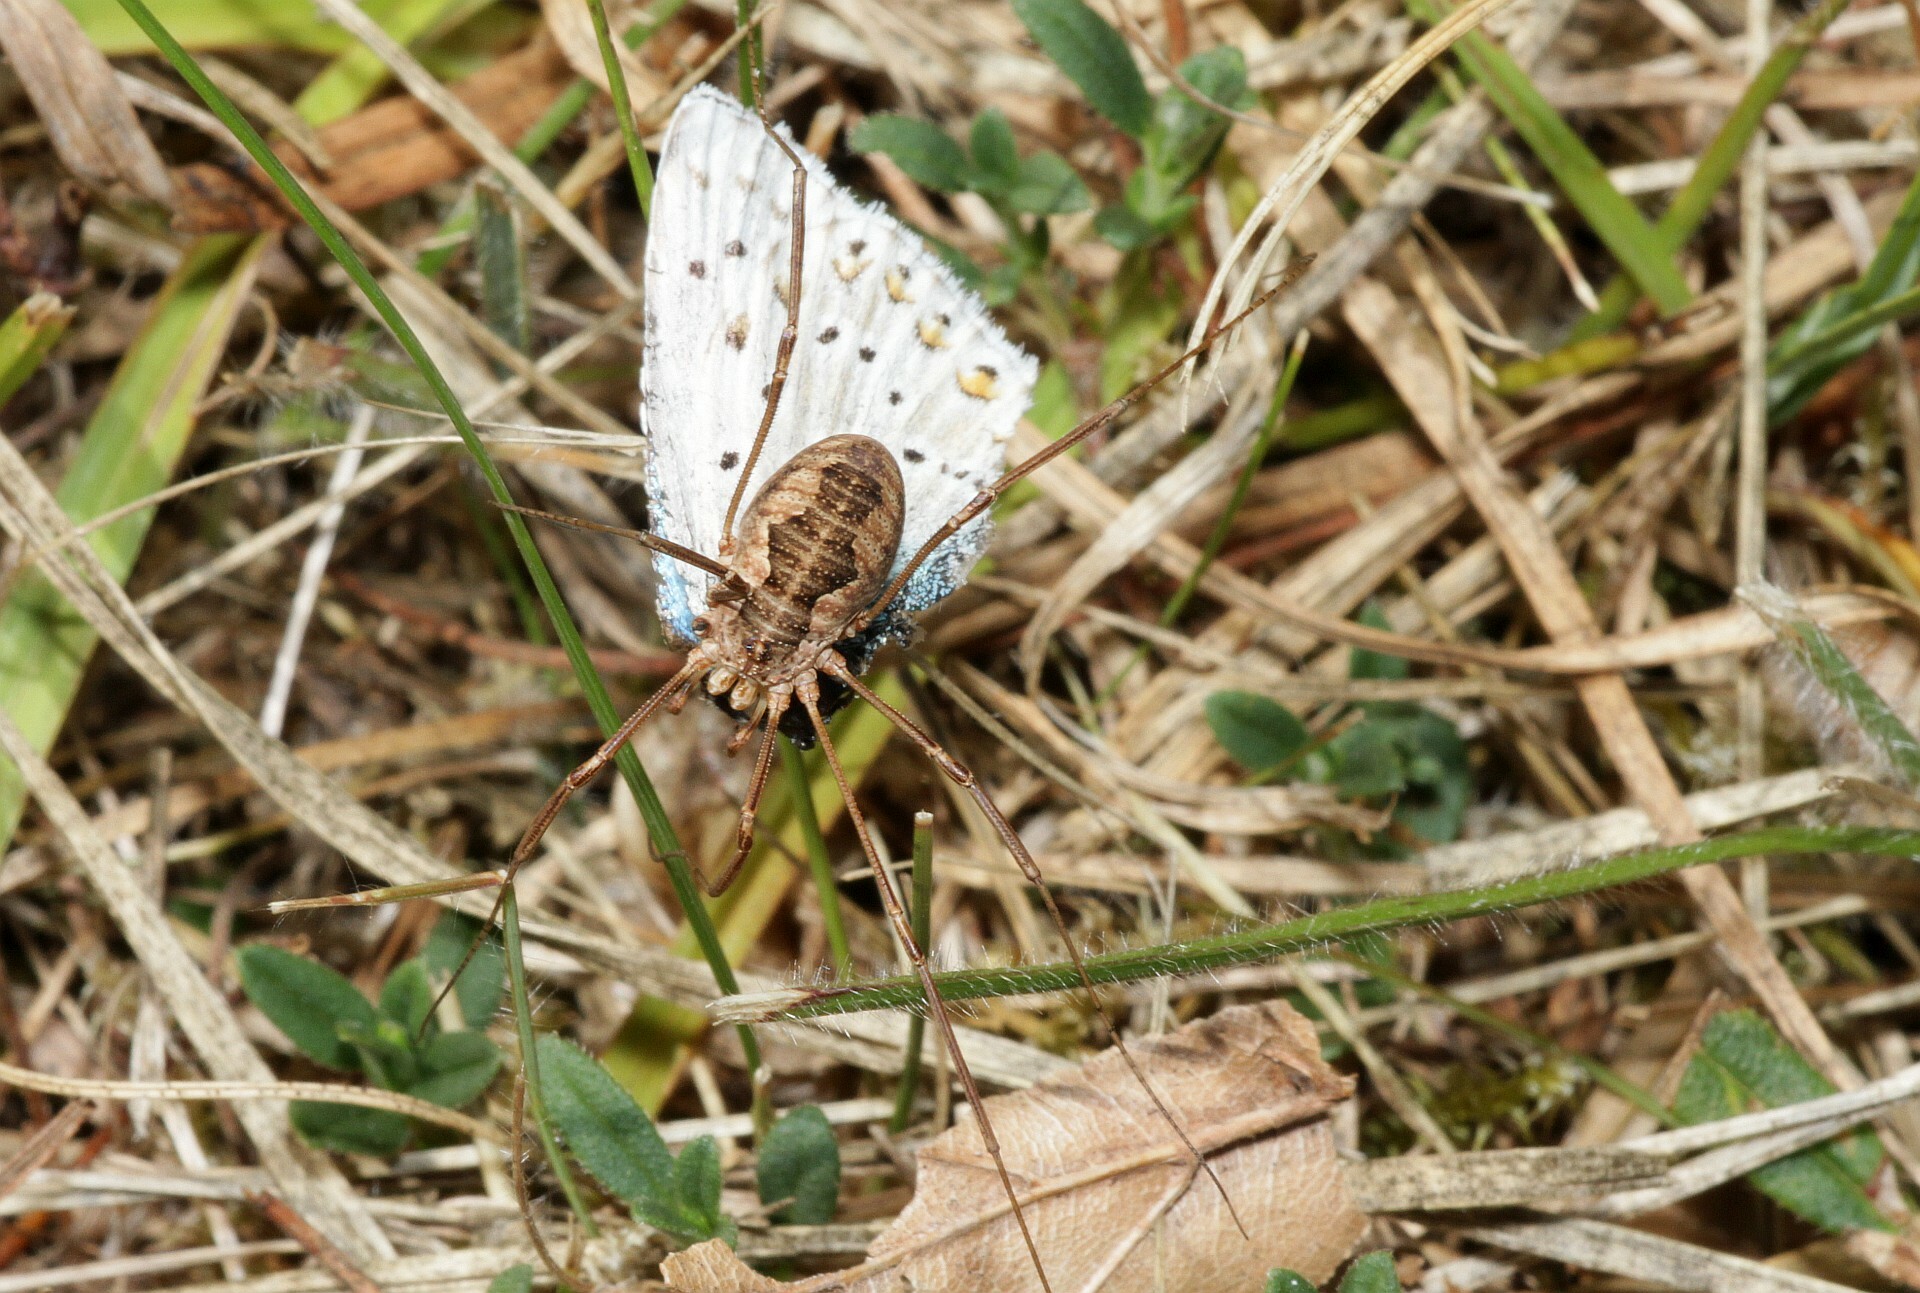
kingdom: Animalia
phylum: Arthropoda
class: Arachnida
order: Opiliones
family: Phalangiidae
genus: Phalangium
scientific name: Phalangium opilio
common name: Daddy longleg
